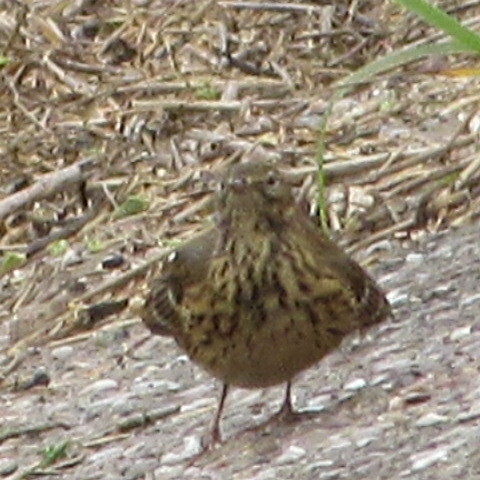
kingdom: Animalia
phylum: Chordata
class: Aves
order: Passeriformes
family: Motacillidae
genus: Anthus
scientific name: Anthus pratensis
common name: Meadow pipit
